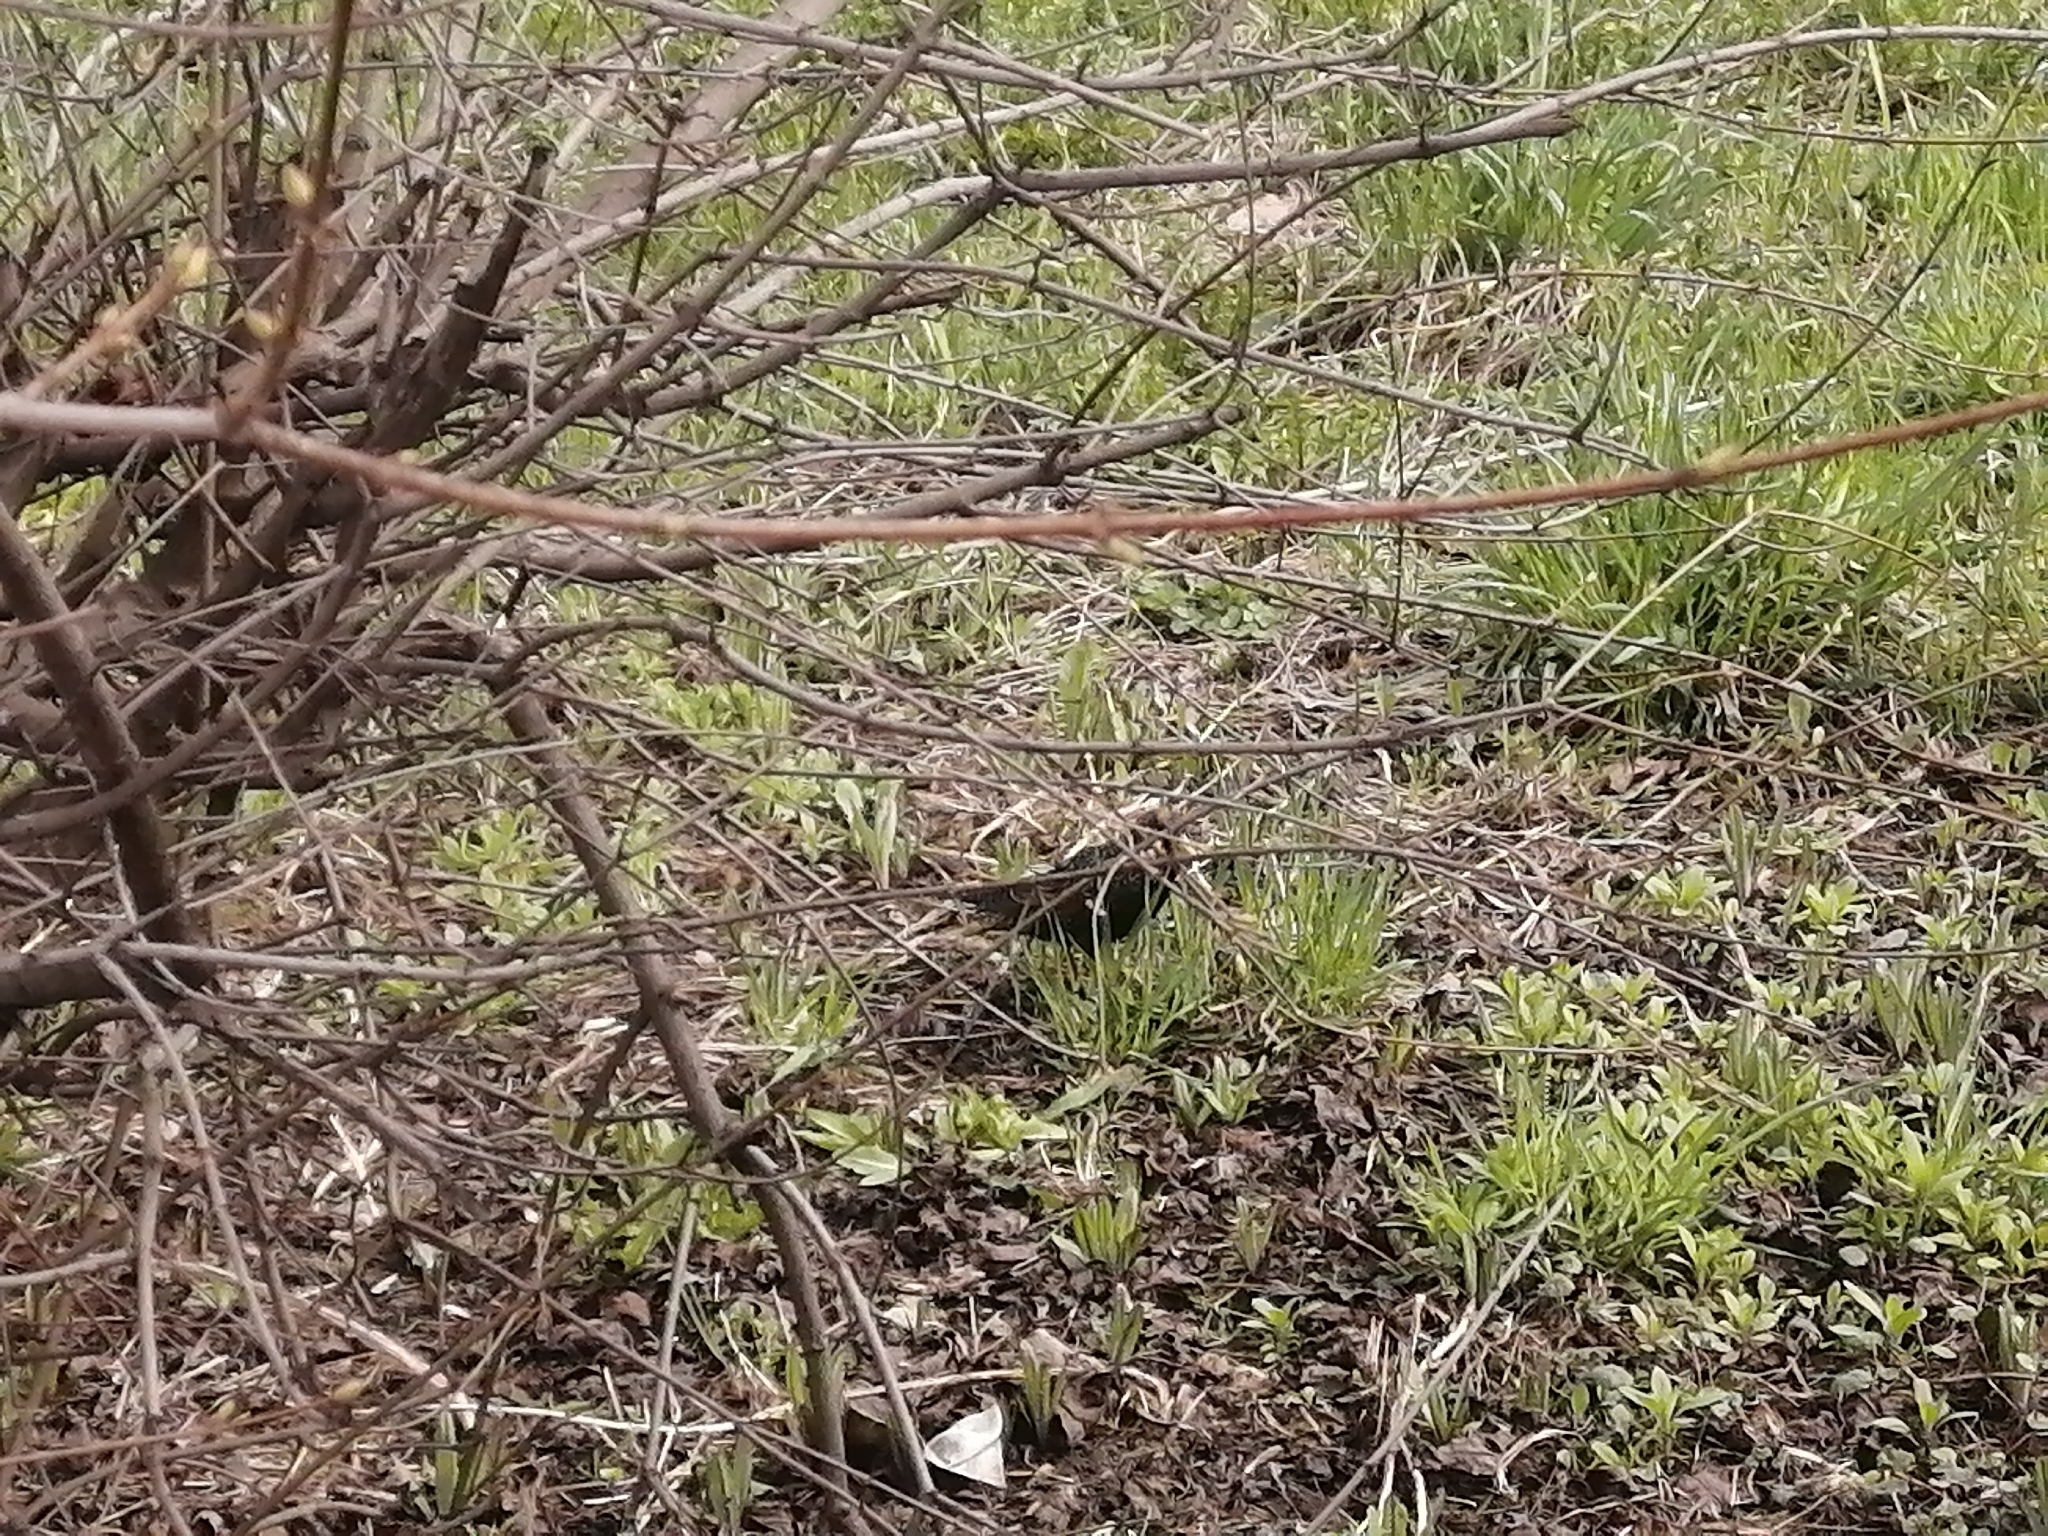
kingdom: Animalia
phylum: Chordata
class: Aves
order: Passeriformes
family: Sturnidae
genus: Sturnus
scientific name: Sturnus vulgaris
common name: Common starling
